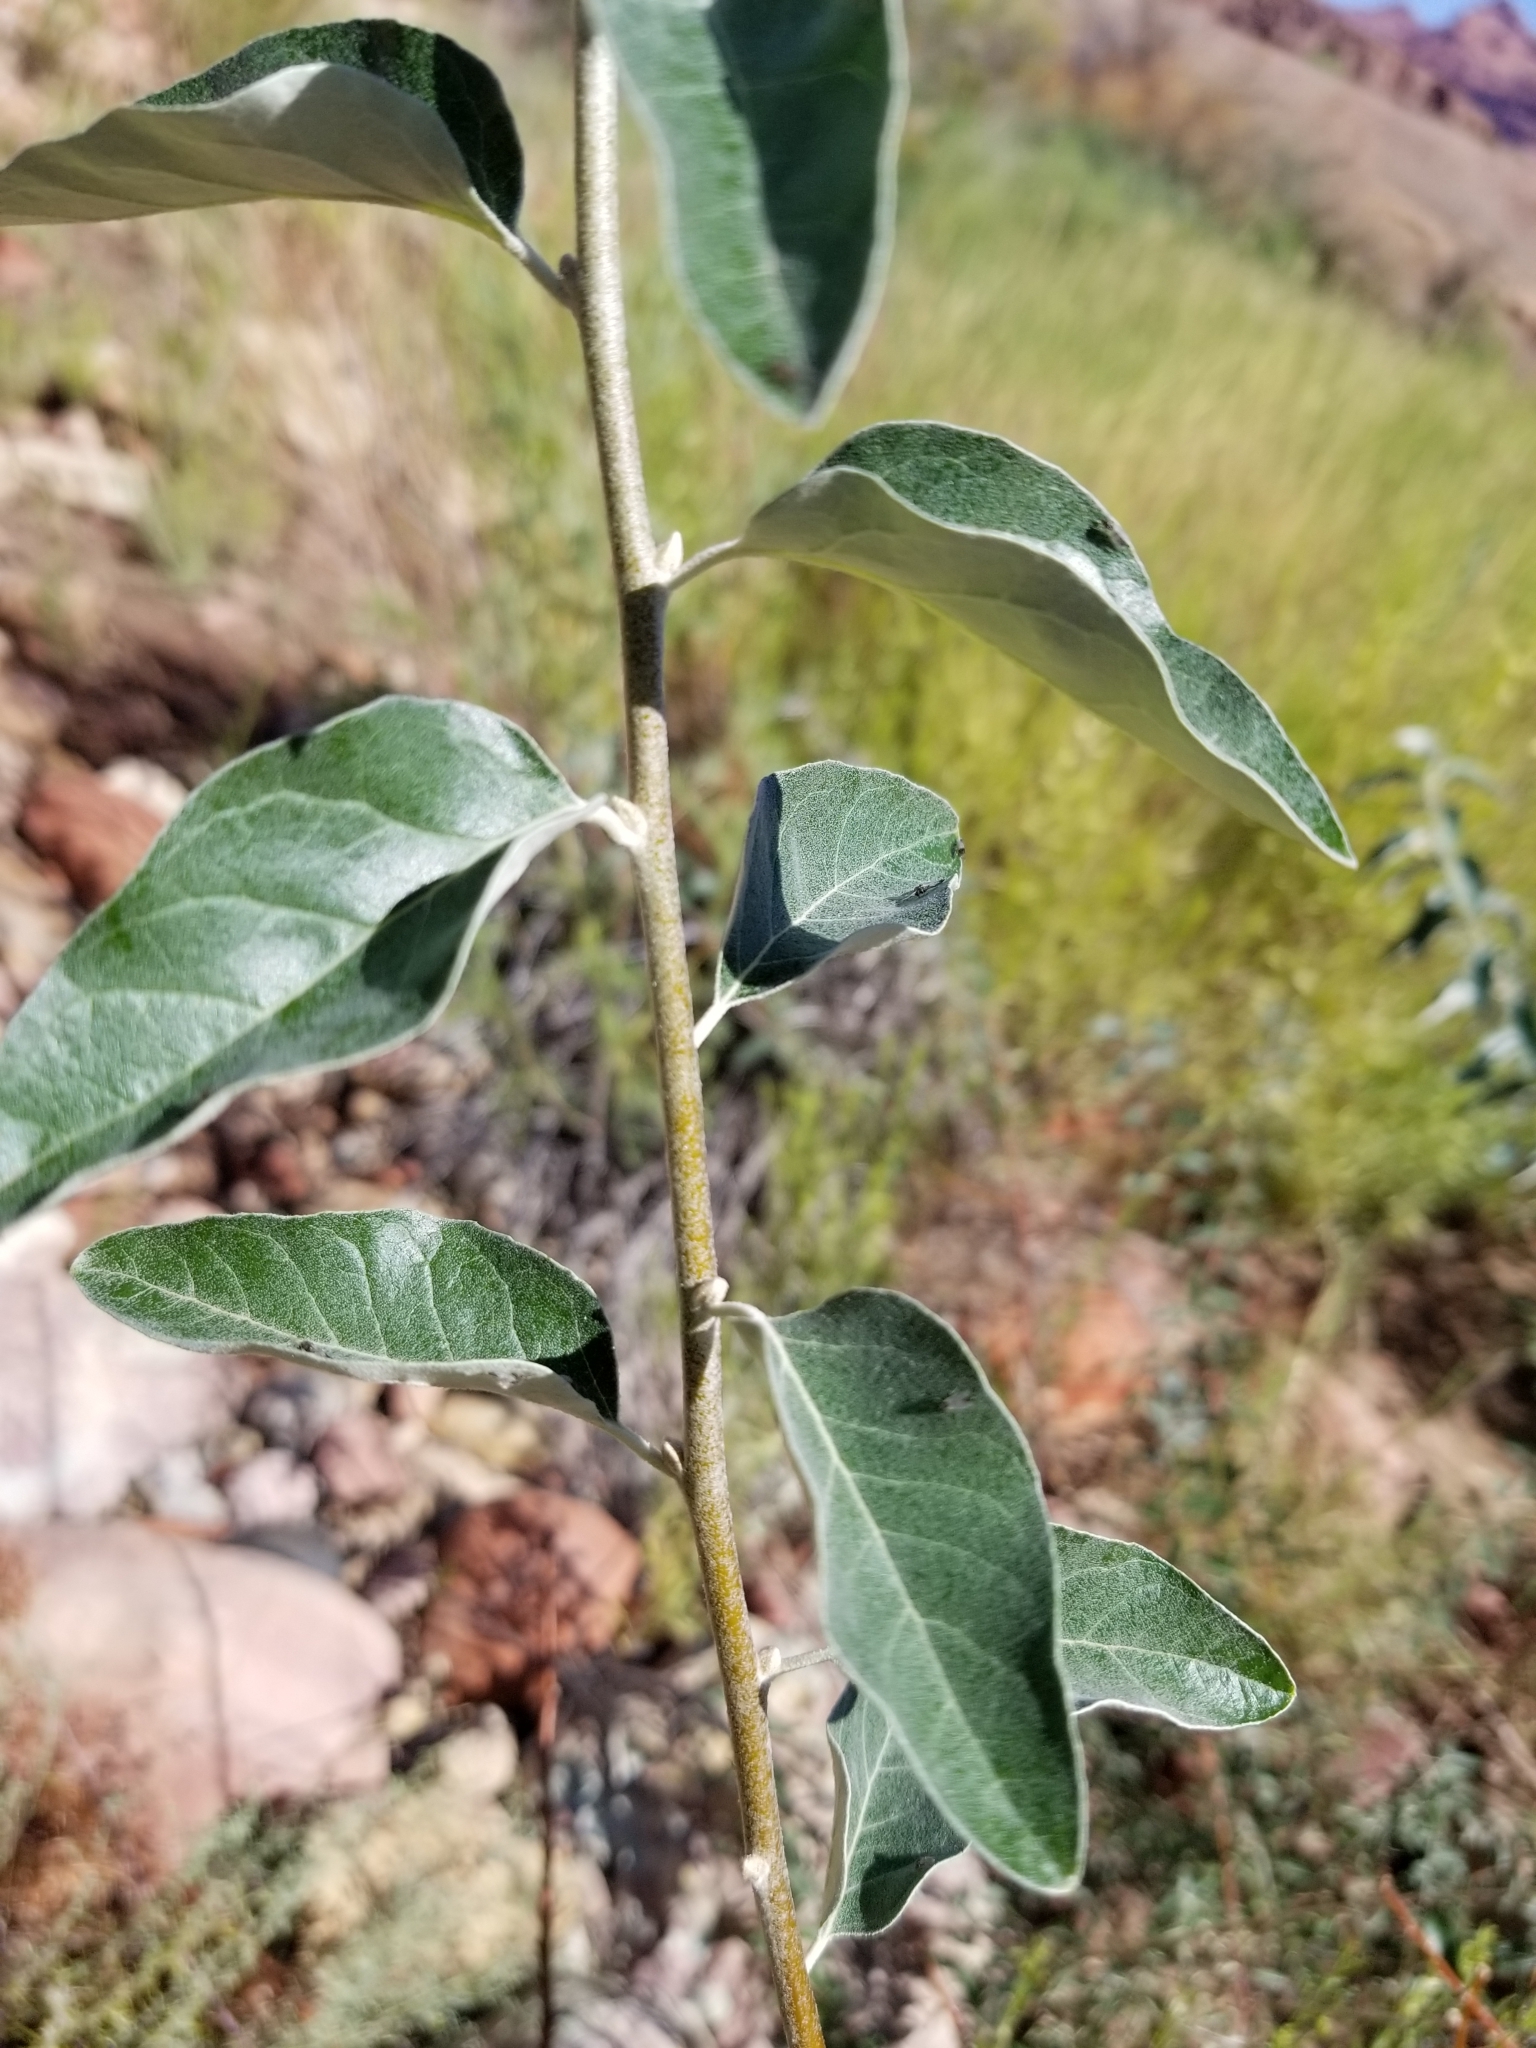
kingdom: Plantae
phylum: Tracheophyta
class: Magnoliopsida
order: Rosales
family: Elaeagnaceae
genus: Elaeagnus
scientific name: Elaeagnus angustifolia
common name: Russian olive
